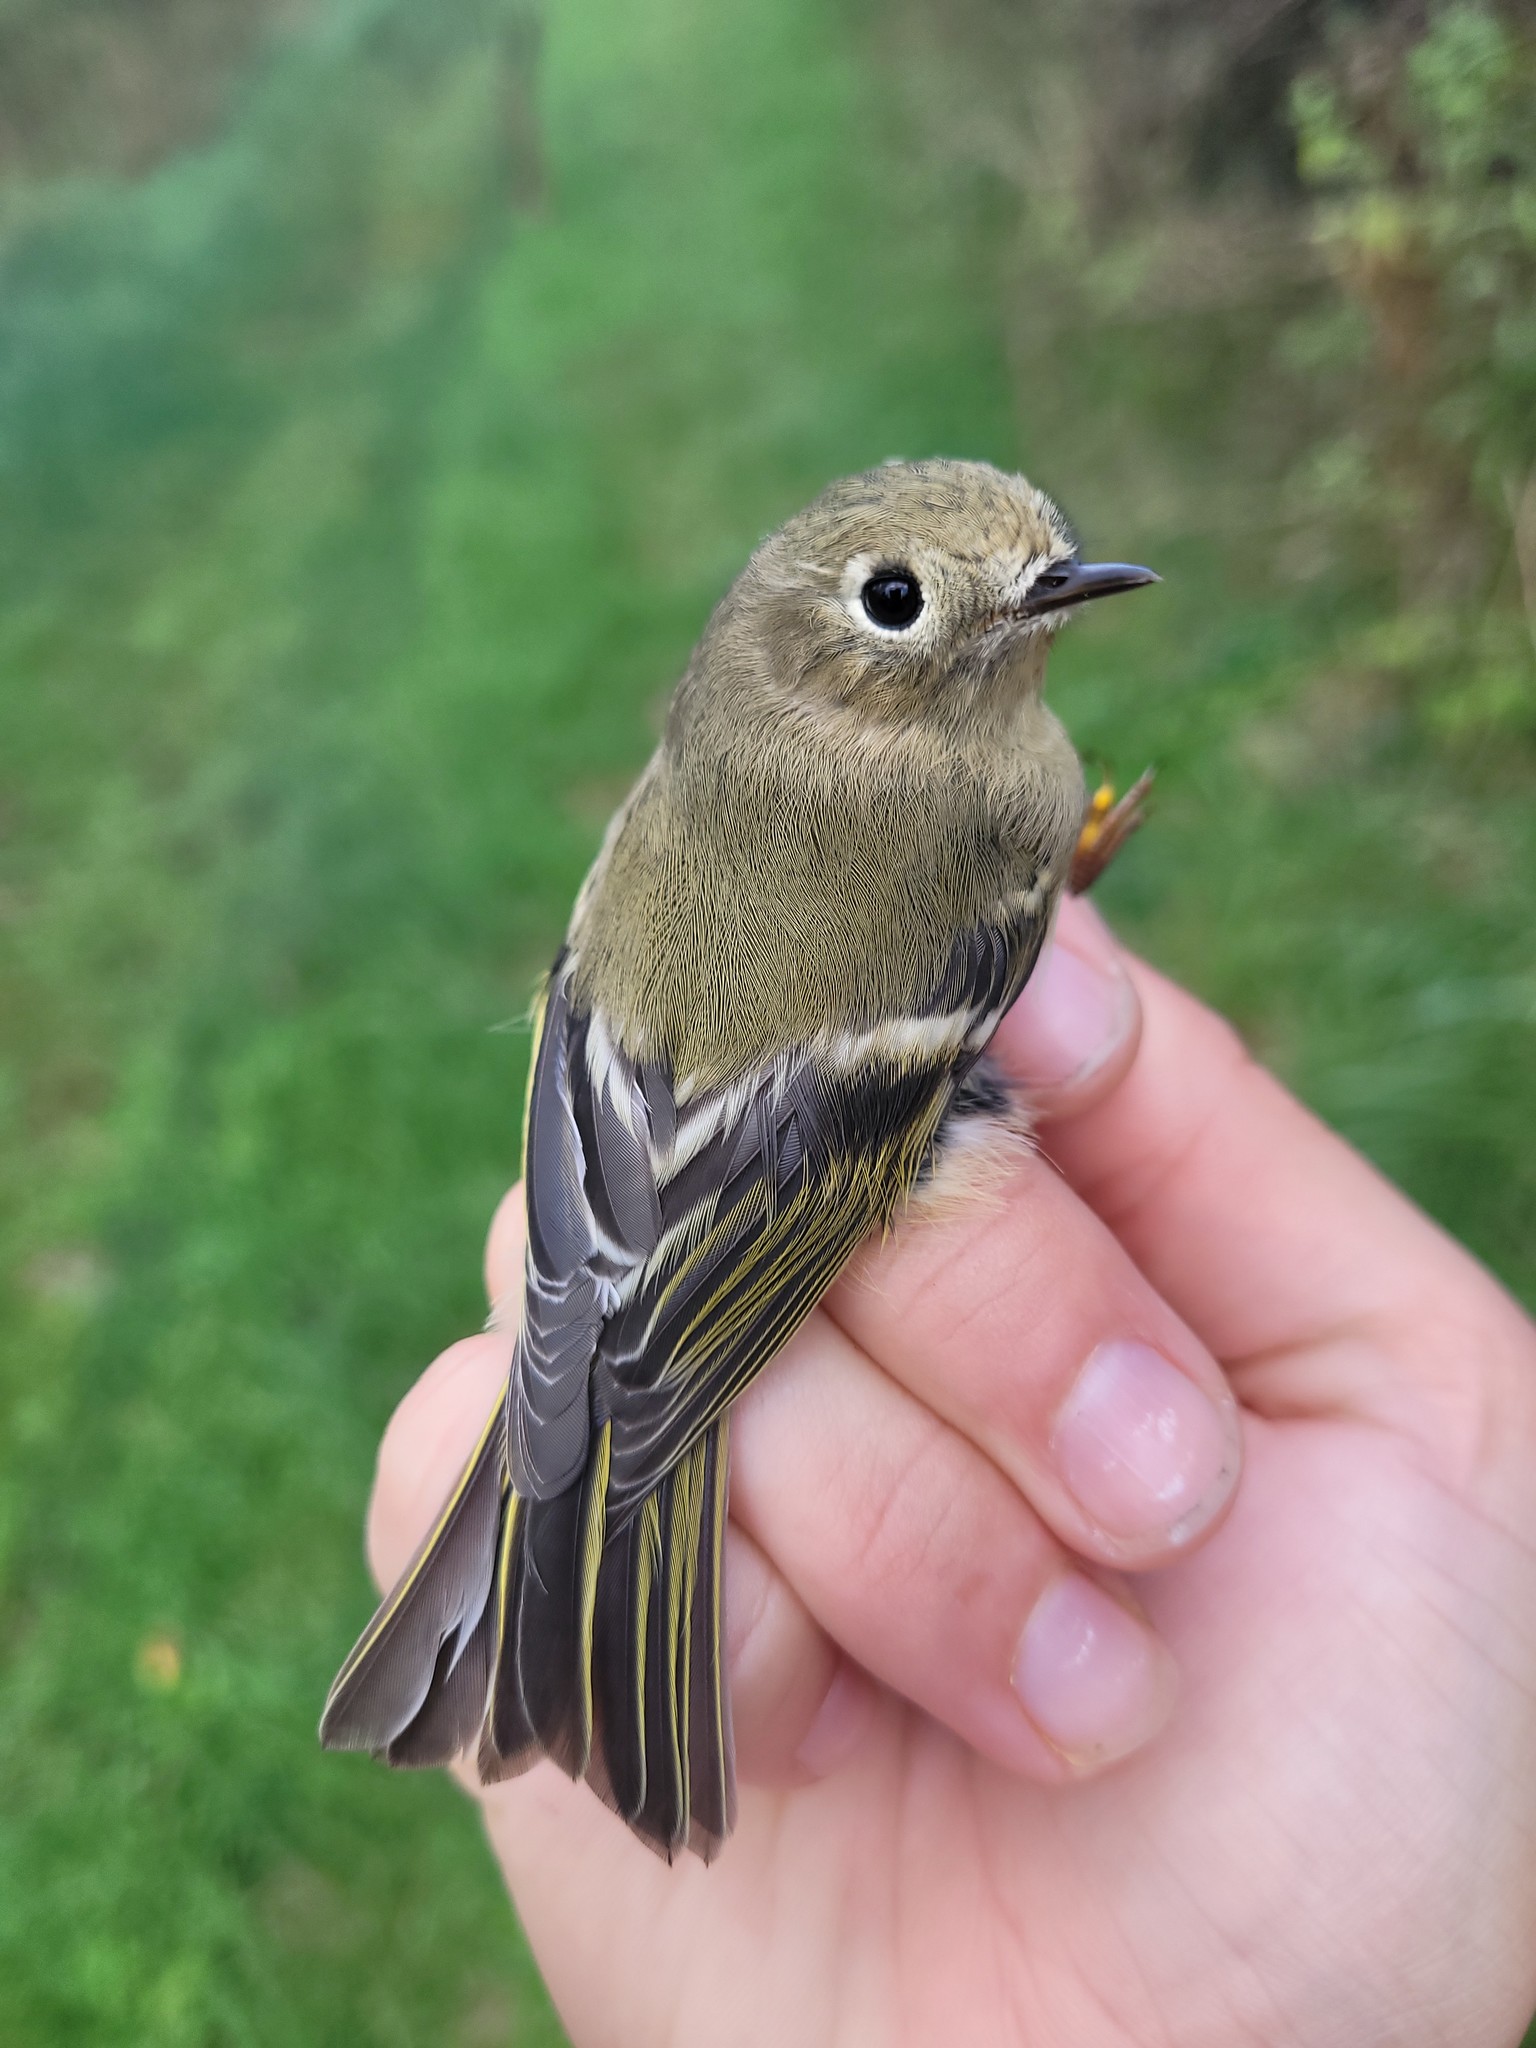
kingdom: Animalia
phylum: Chordata
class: Aves
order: Passeriformes
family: Regulidae
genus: Regulus
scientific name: Regulus calendula
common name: Ruby-crowned kinglet
